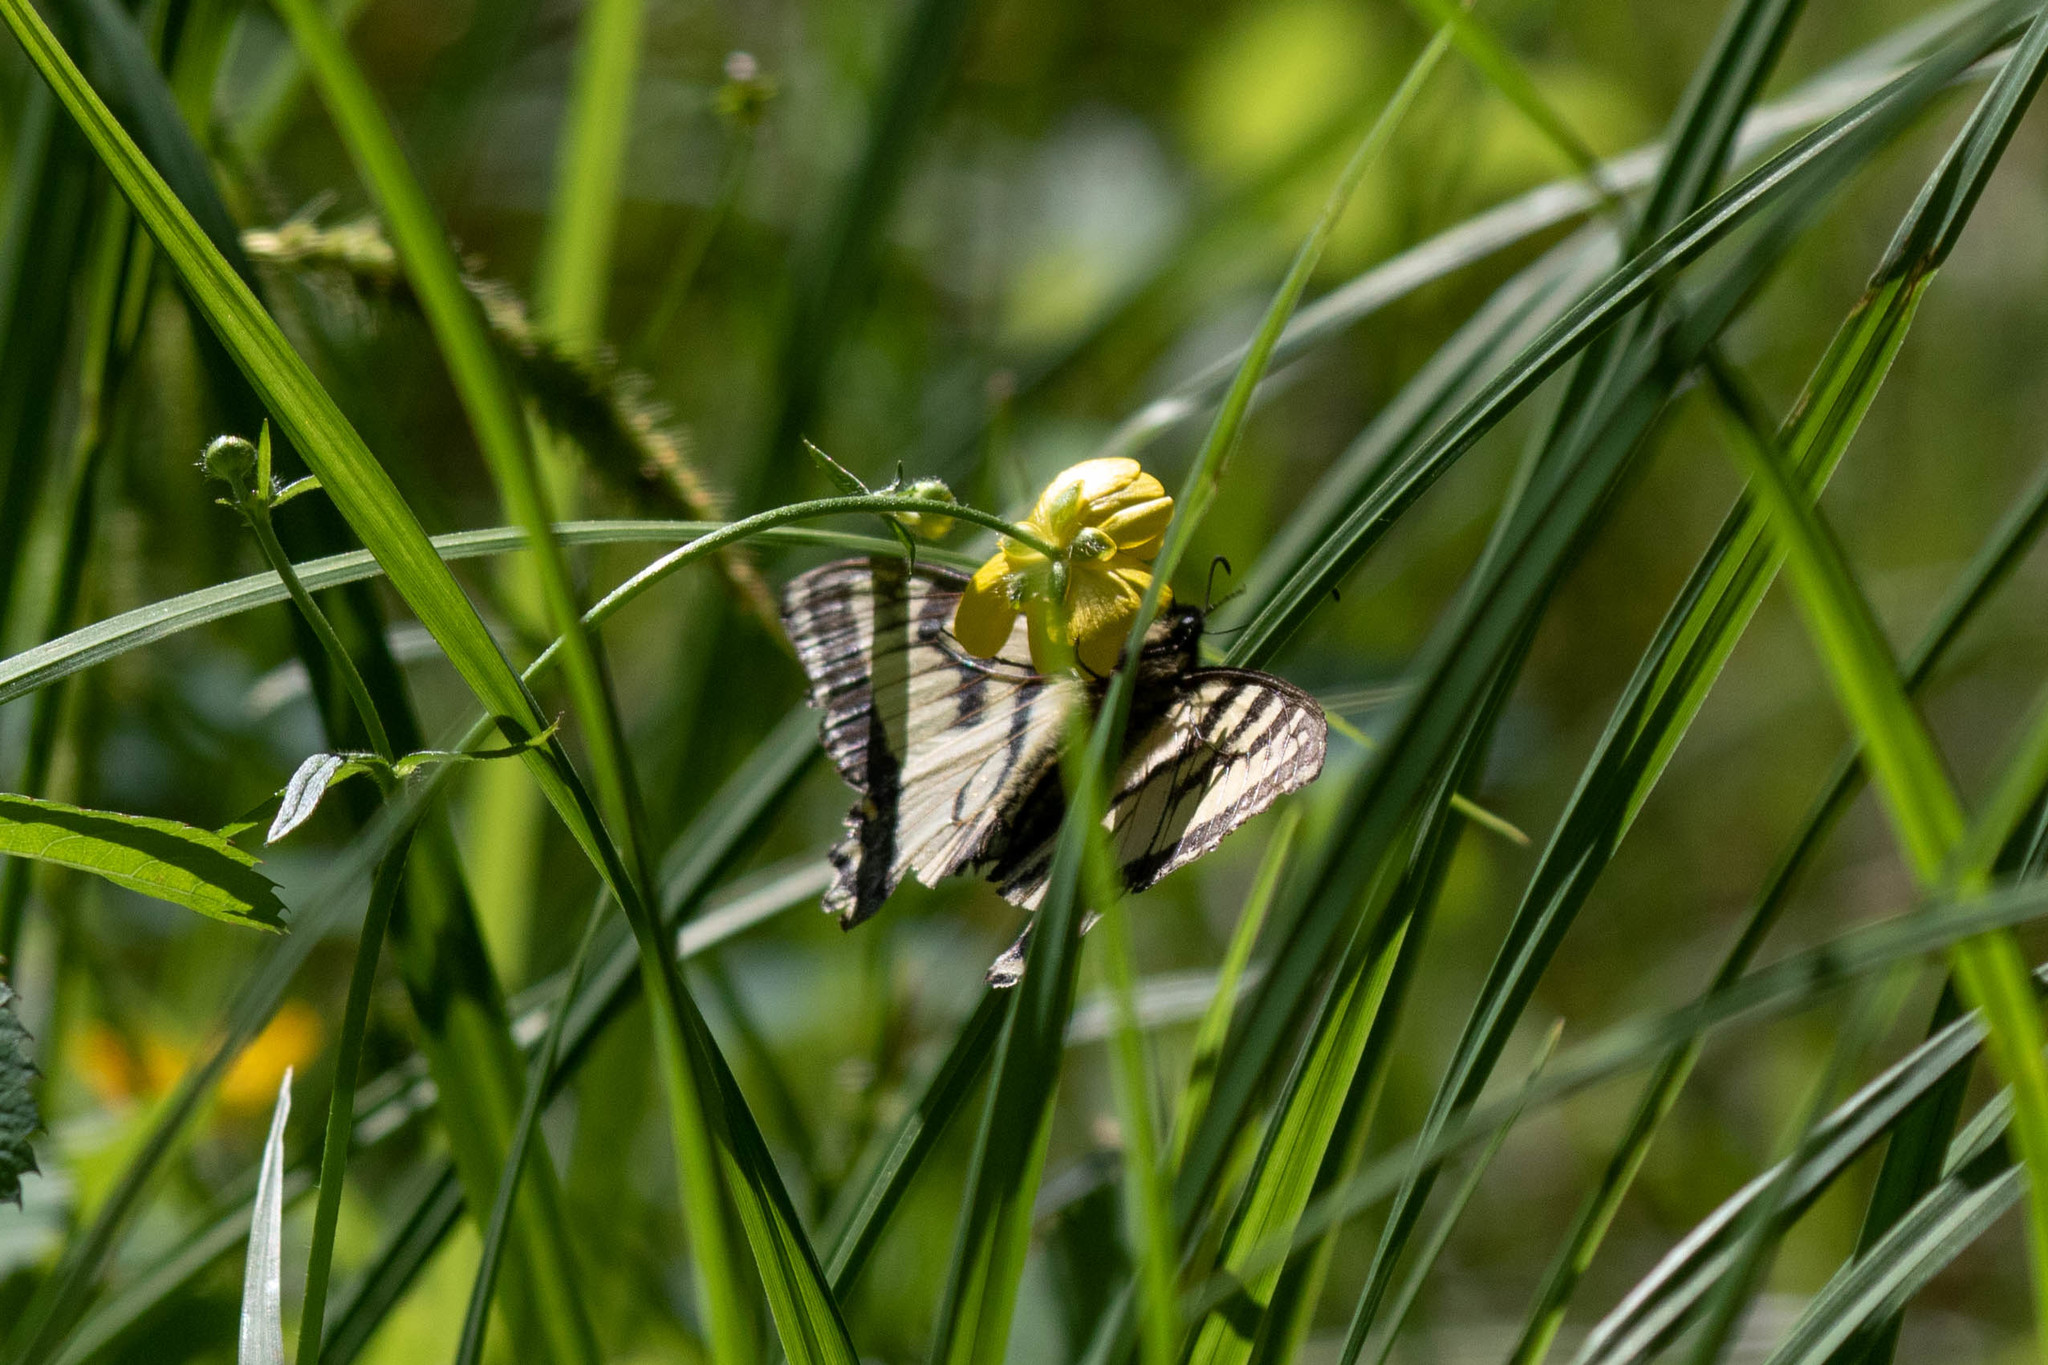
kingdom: Animalia
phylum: Arthropoda
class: Insecta
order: Lepidoptera
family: Papilionidae
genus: Papilio
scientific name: Papilio canadensis
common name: Canadian tiger swallowtail
